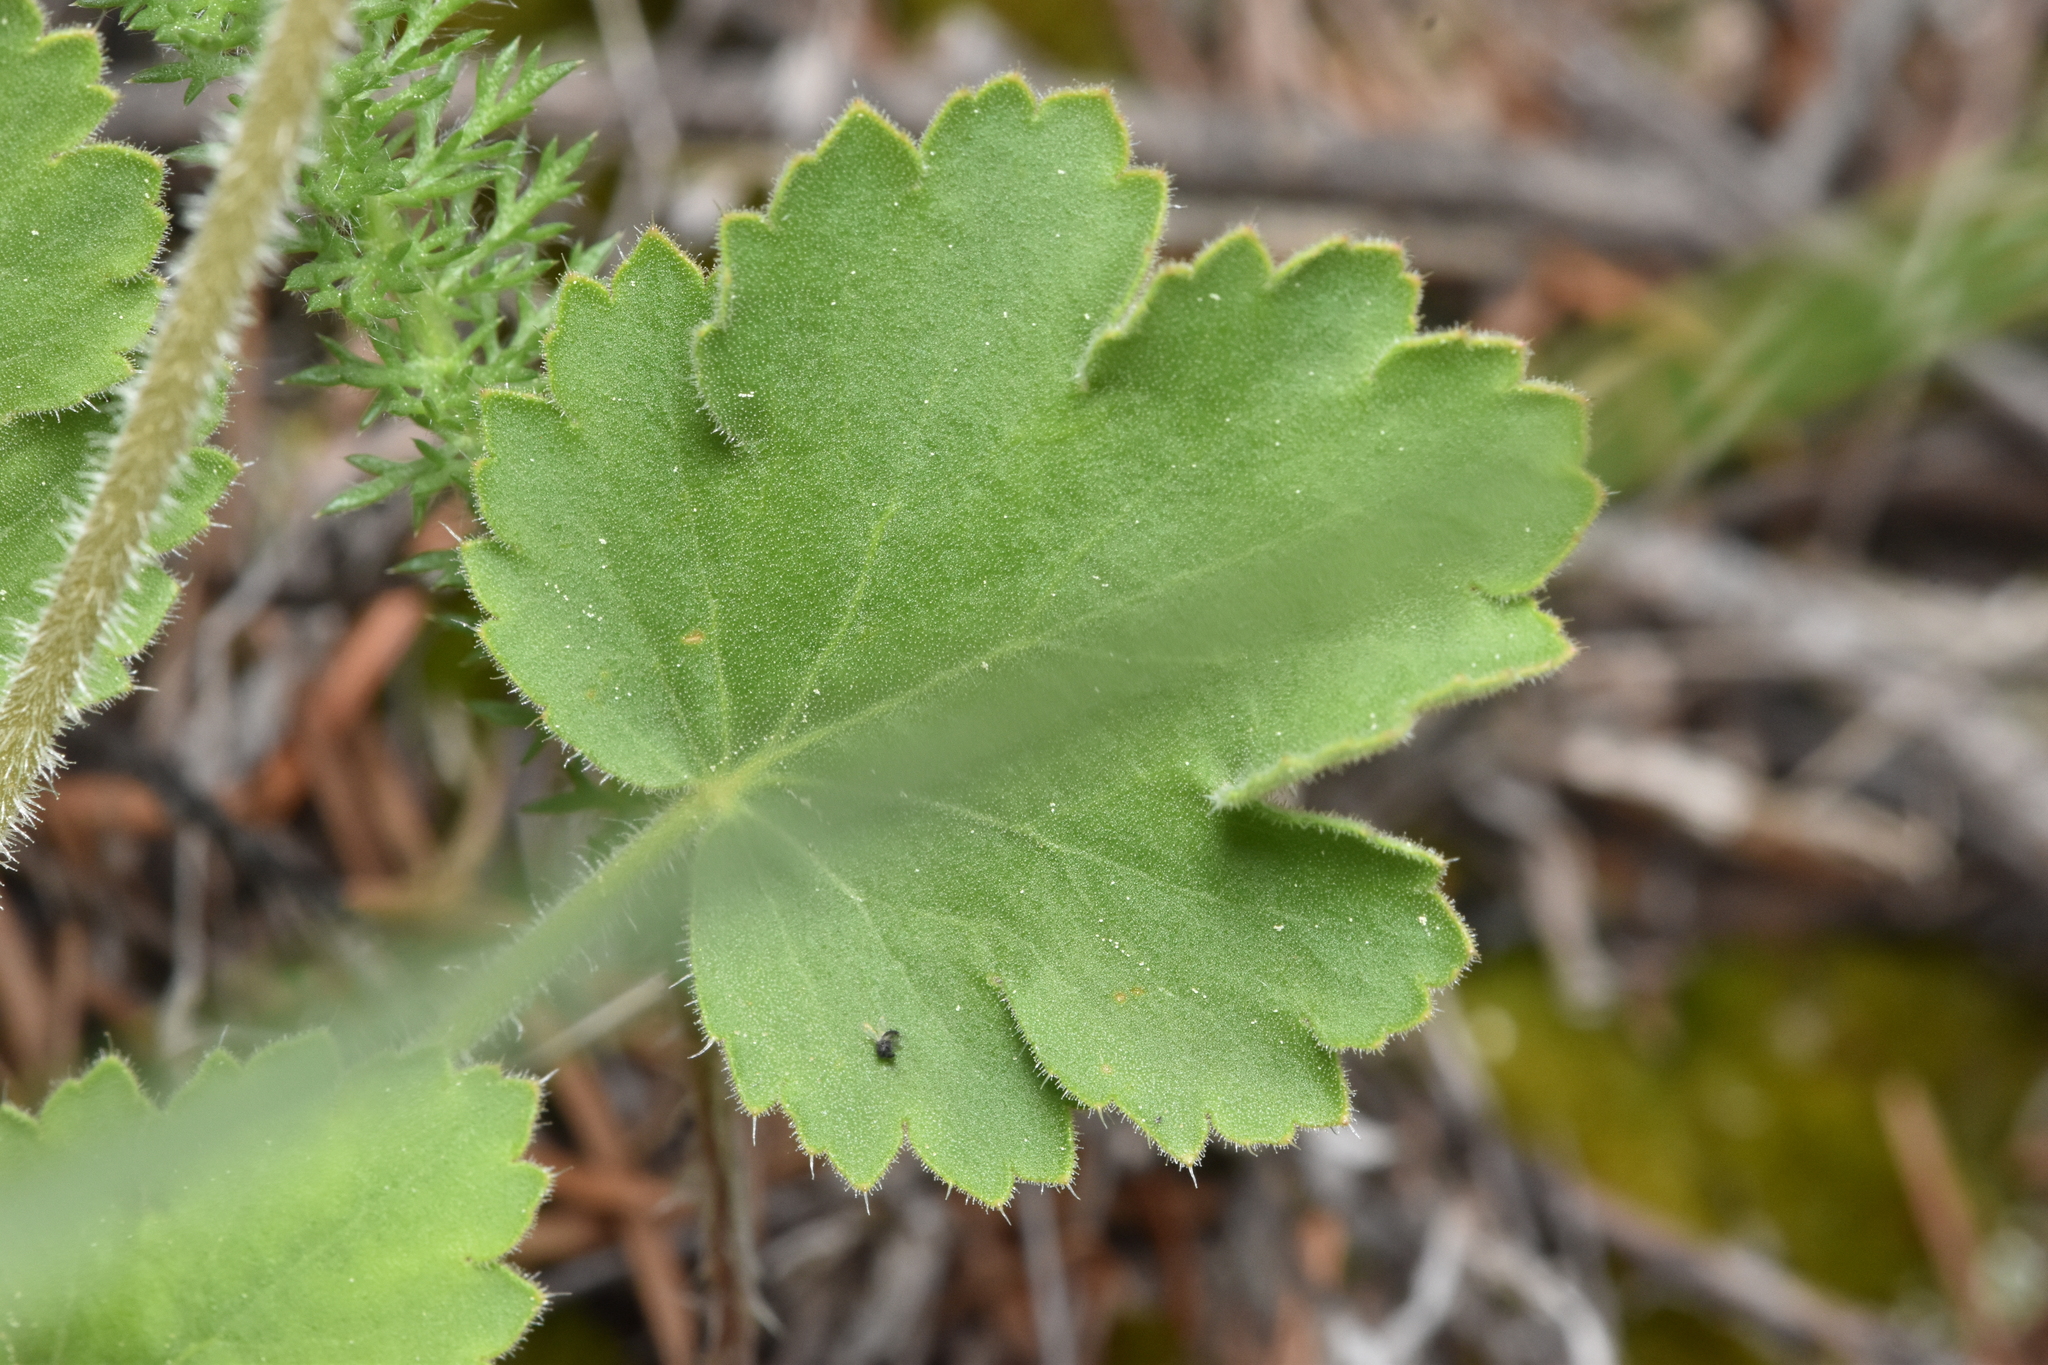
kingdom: Plantae
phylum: Tracheophyta
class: Magnoliopsida
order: Saxifragales
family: Saxifragaceae
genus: Heuchera
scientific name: Heuchera cylindrica
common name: Mat alumroot
